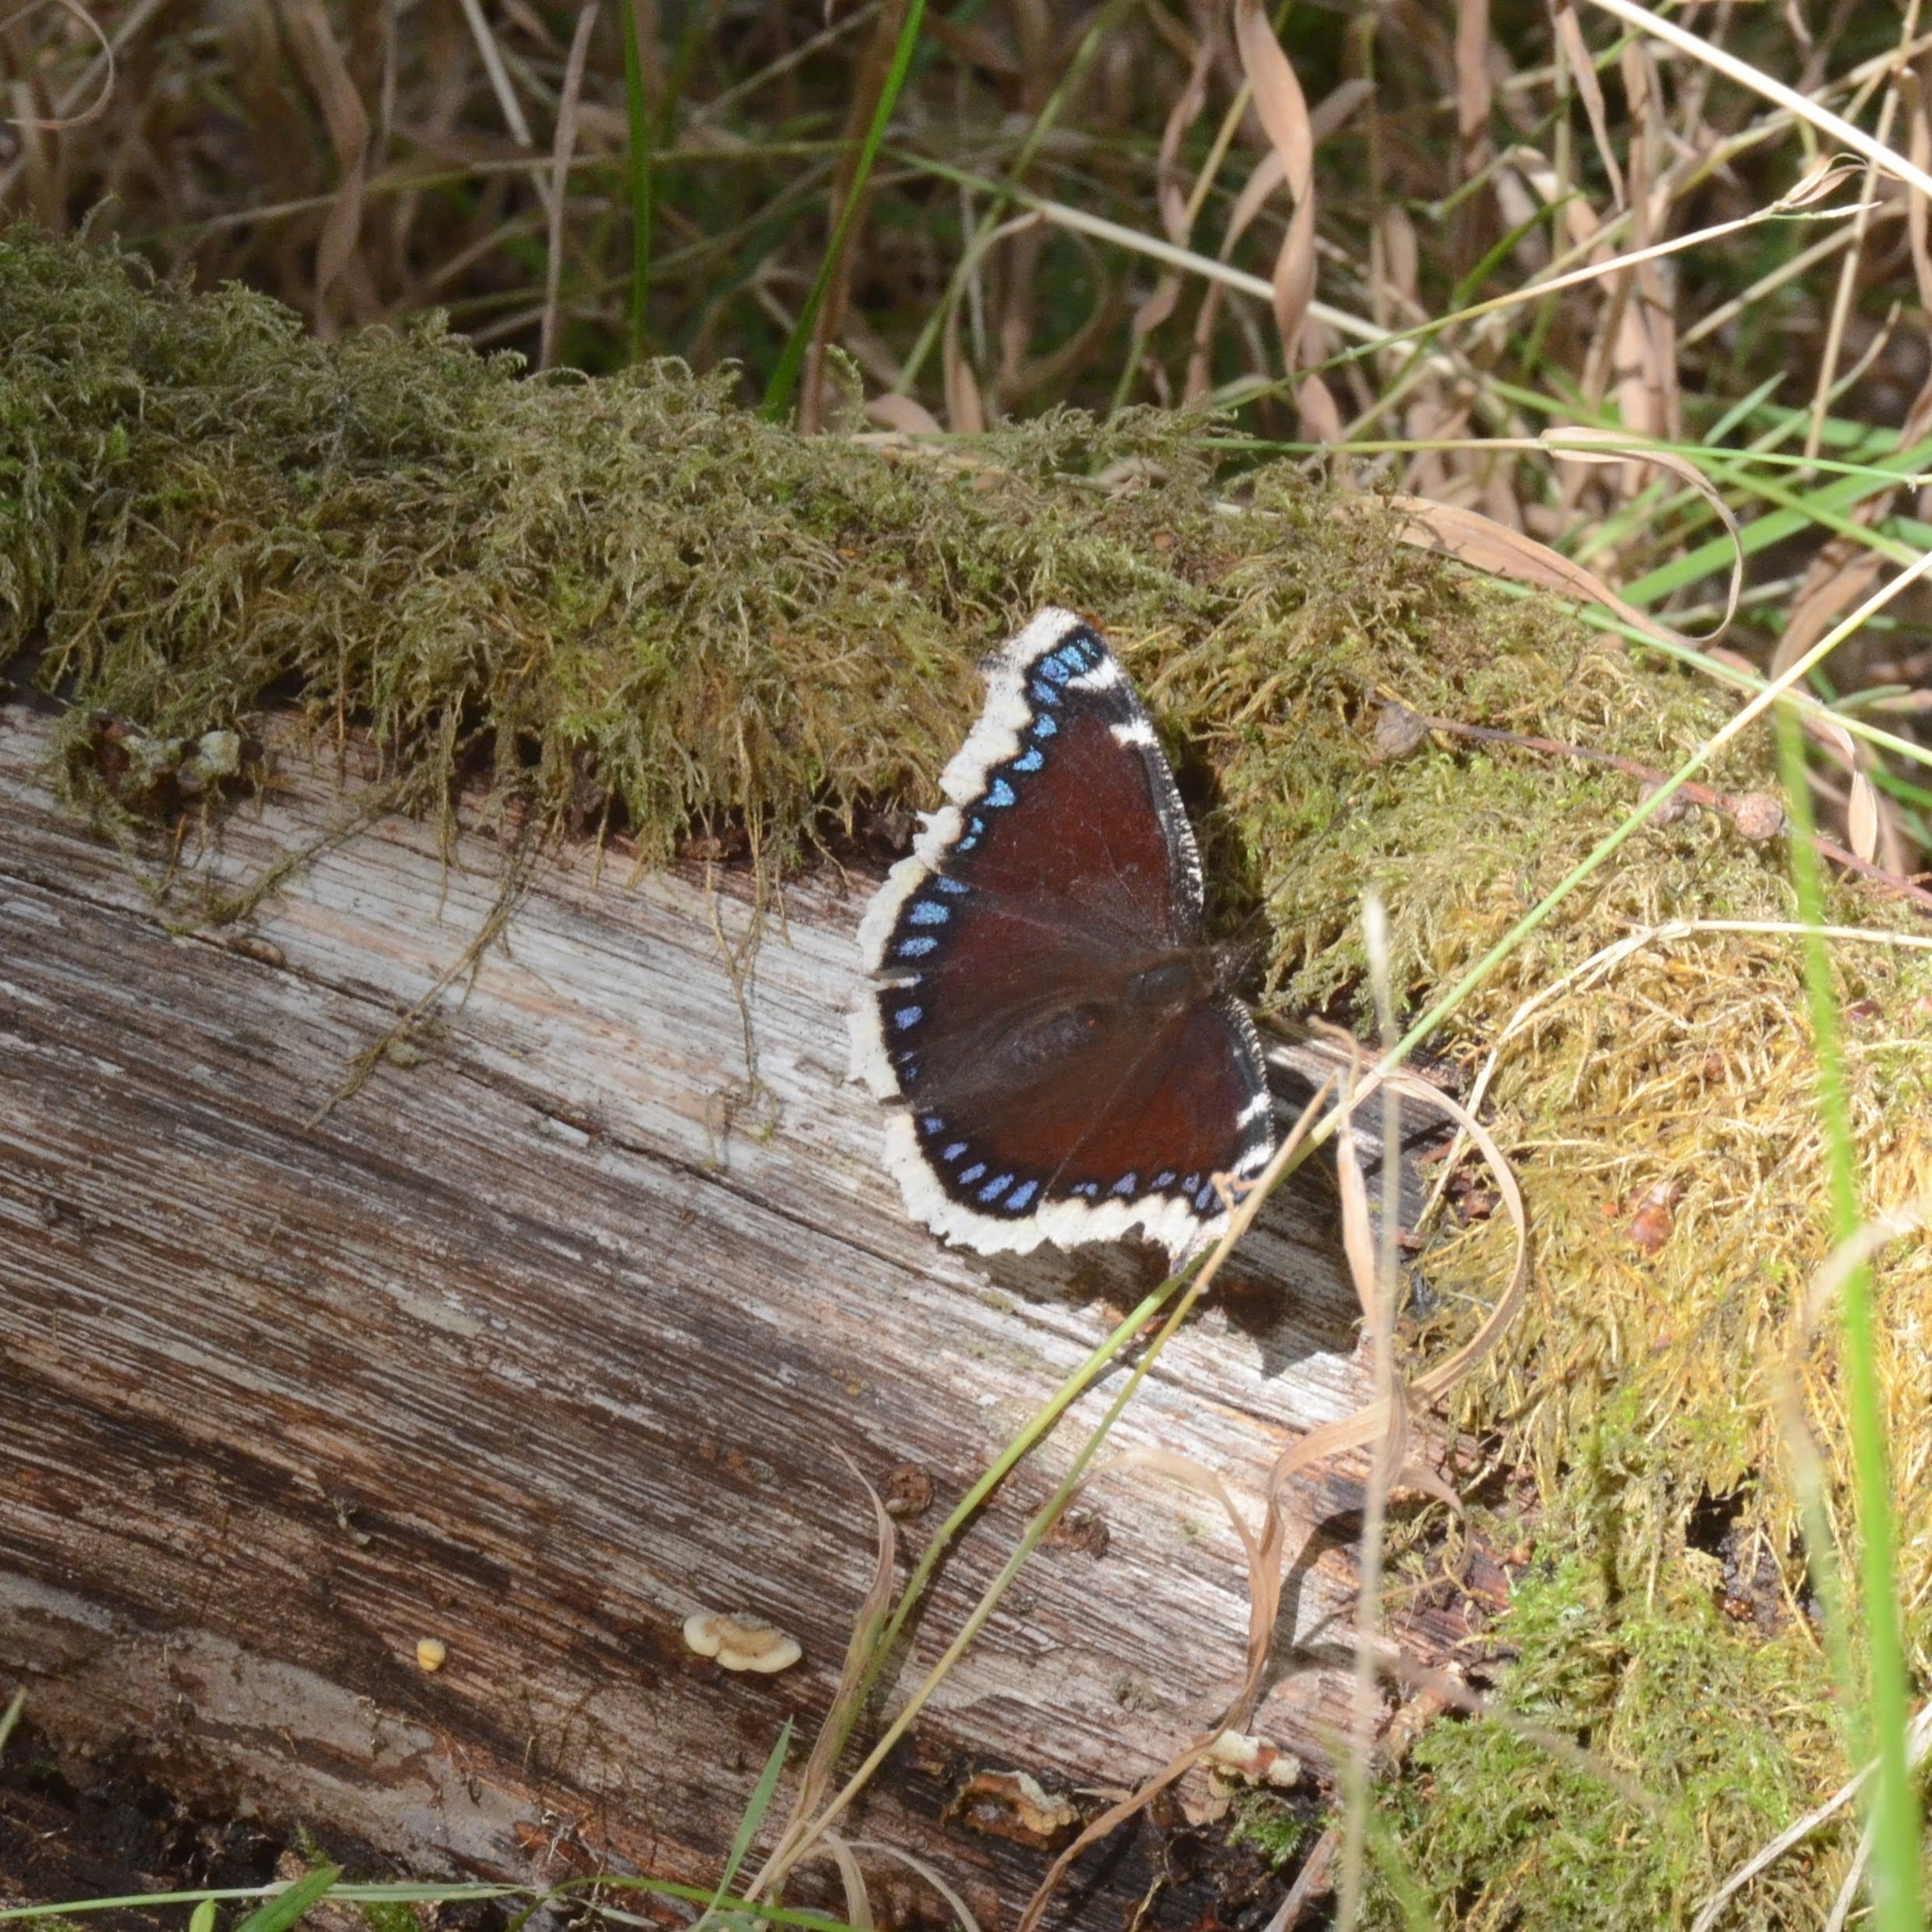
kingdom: Animalia
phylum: Arthropoda
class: Insecta
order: Lepidoptera
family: Nymphalidae
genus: Nymphalis
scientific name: Nymphalis antiopa
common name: Camberwell beauty
